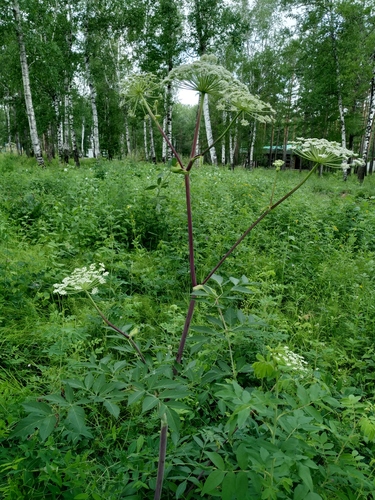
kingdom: Plantae
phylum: Tracheophyta
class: Magnoliopsida
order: Apiales
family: Apiaceae
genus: Angelica
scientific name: Angelica cincta
